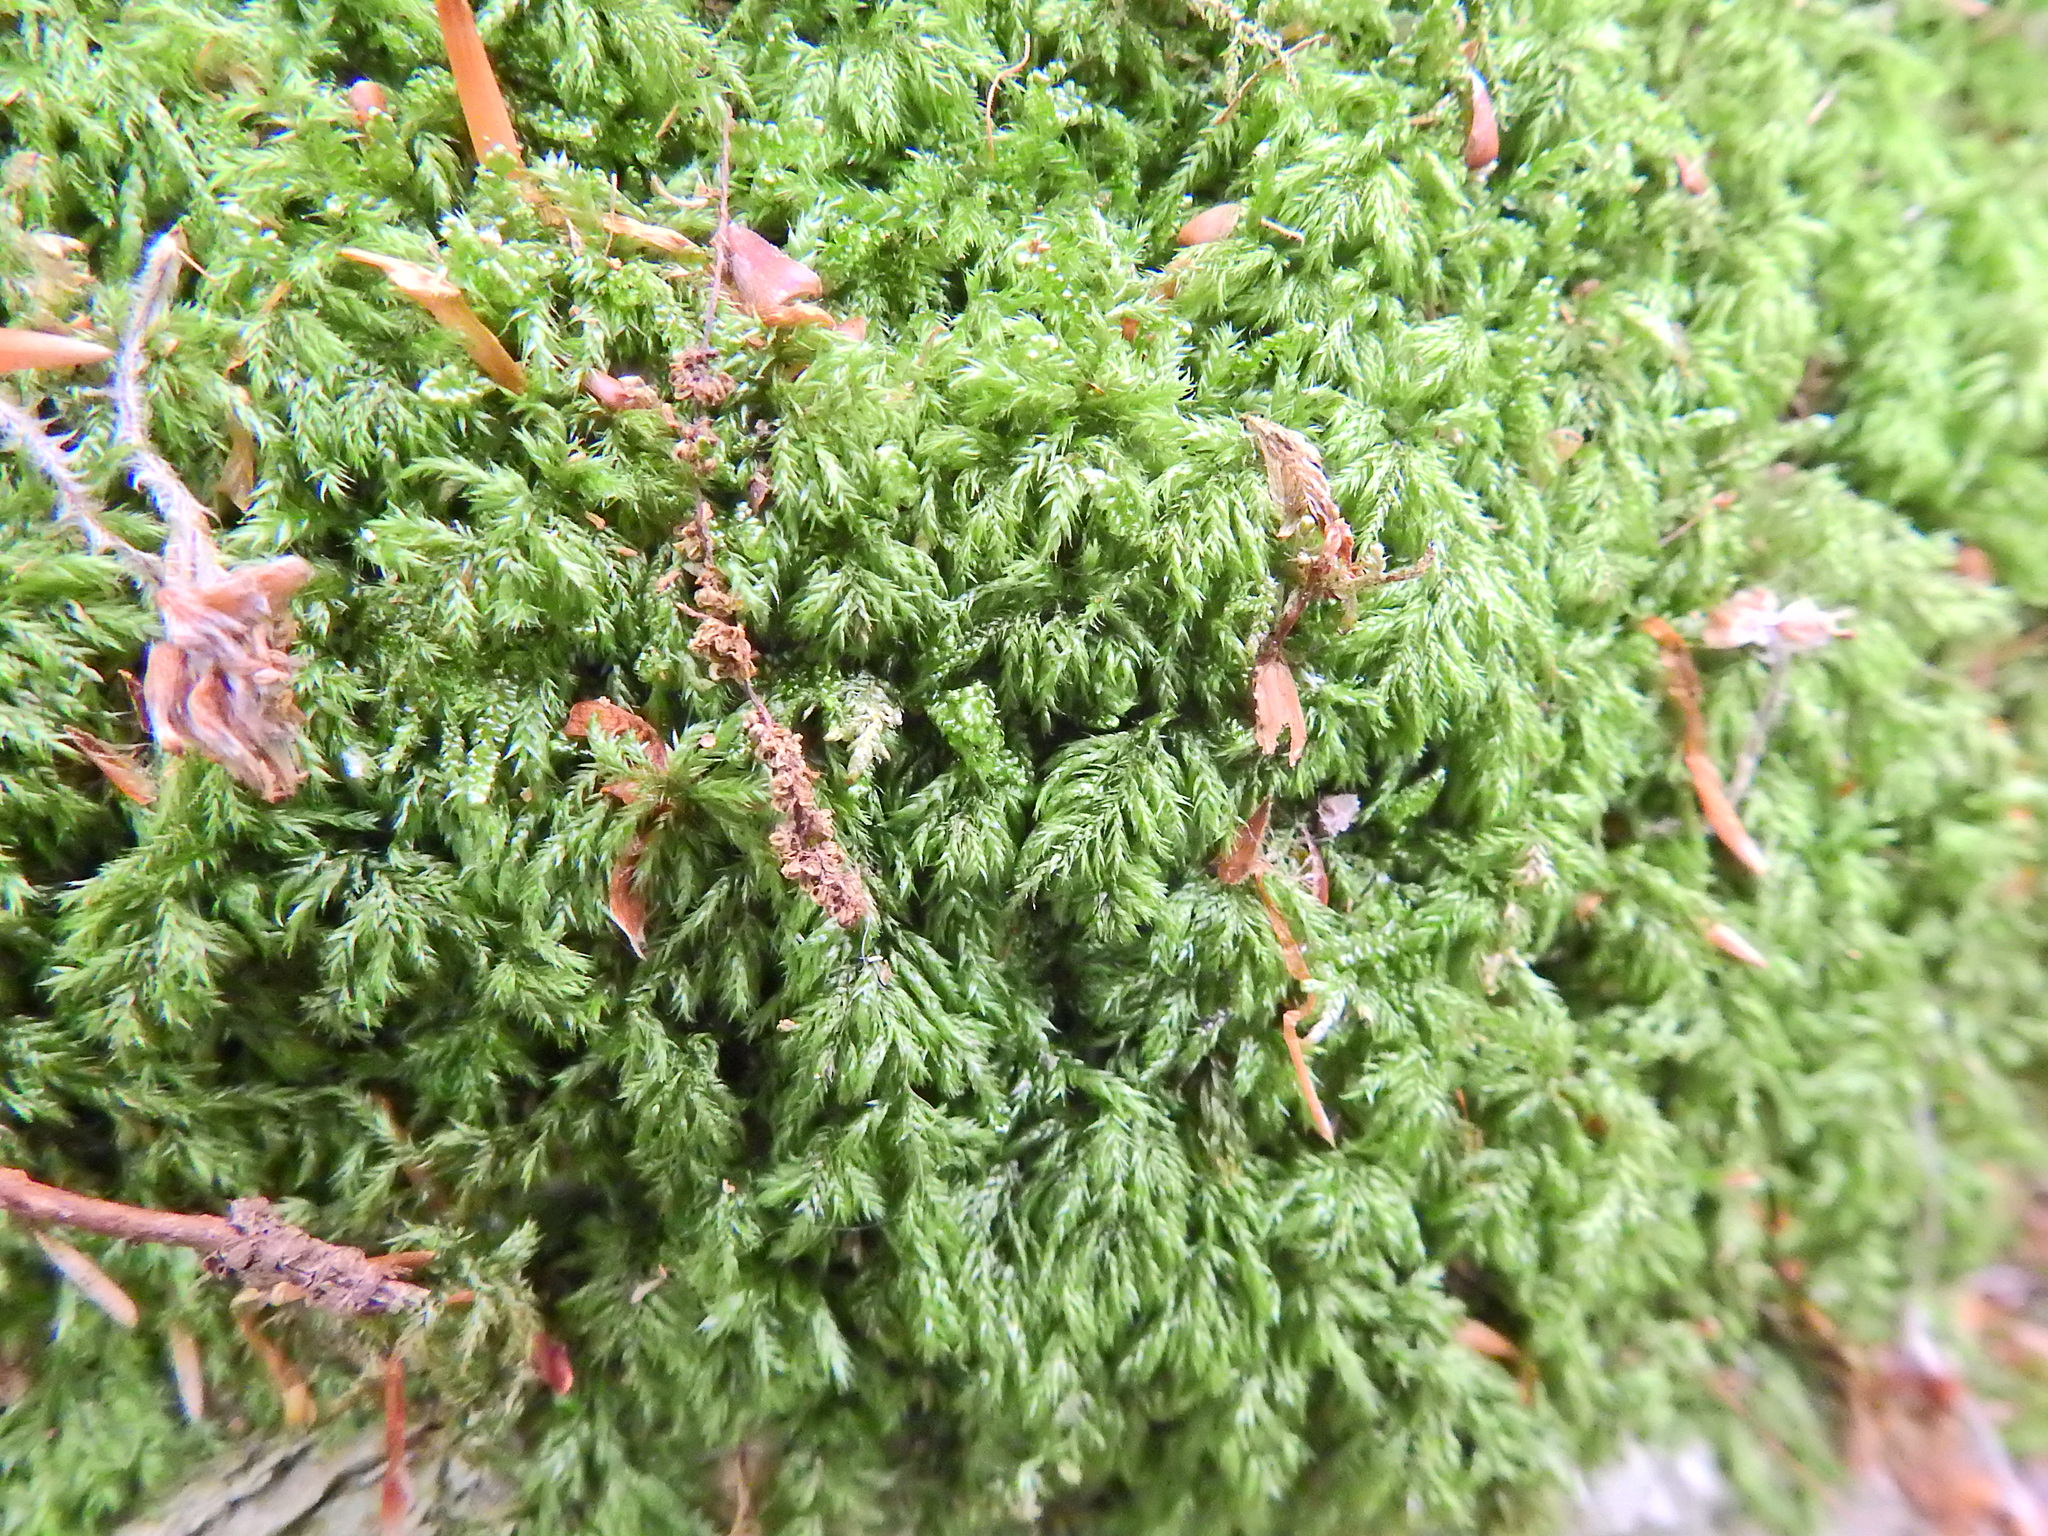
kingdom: Plantae
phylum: Bryophyta
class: Bryopsida
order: Hypnales
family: Lembophyllaceae
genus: Pseudisothecium
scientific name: Pseudisothecium myosuroides
